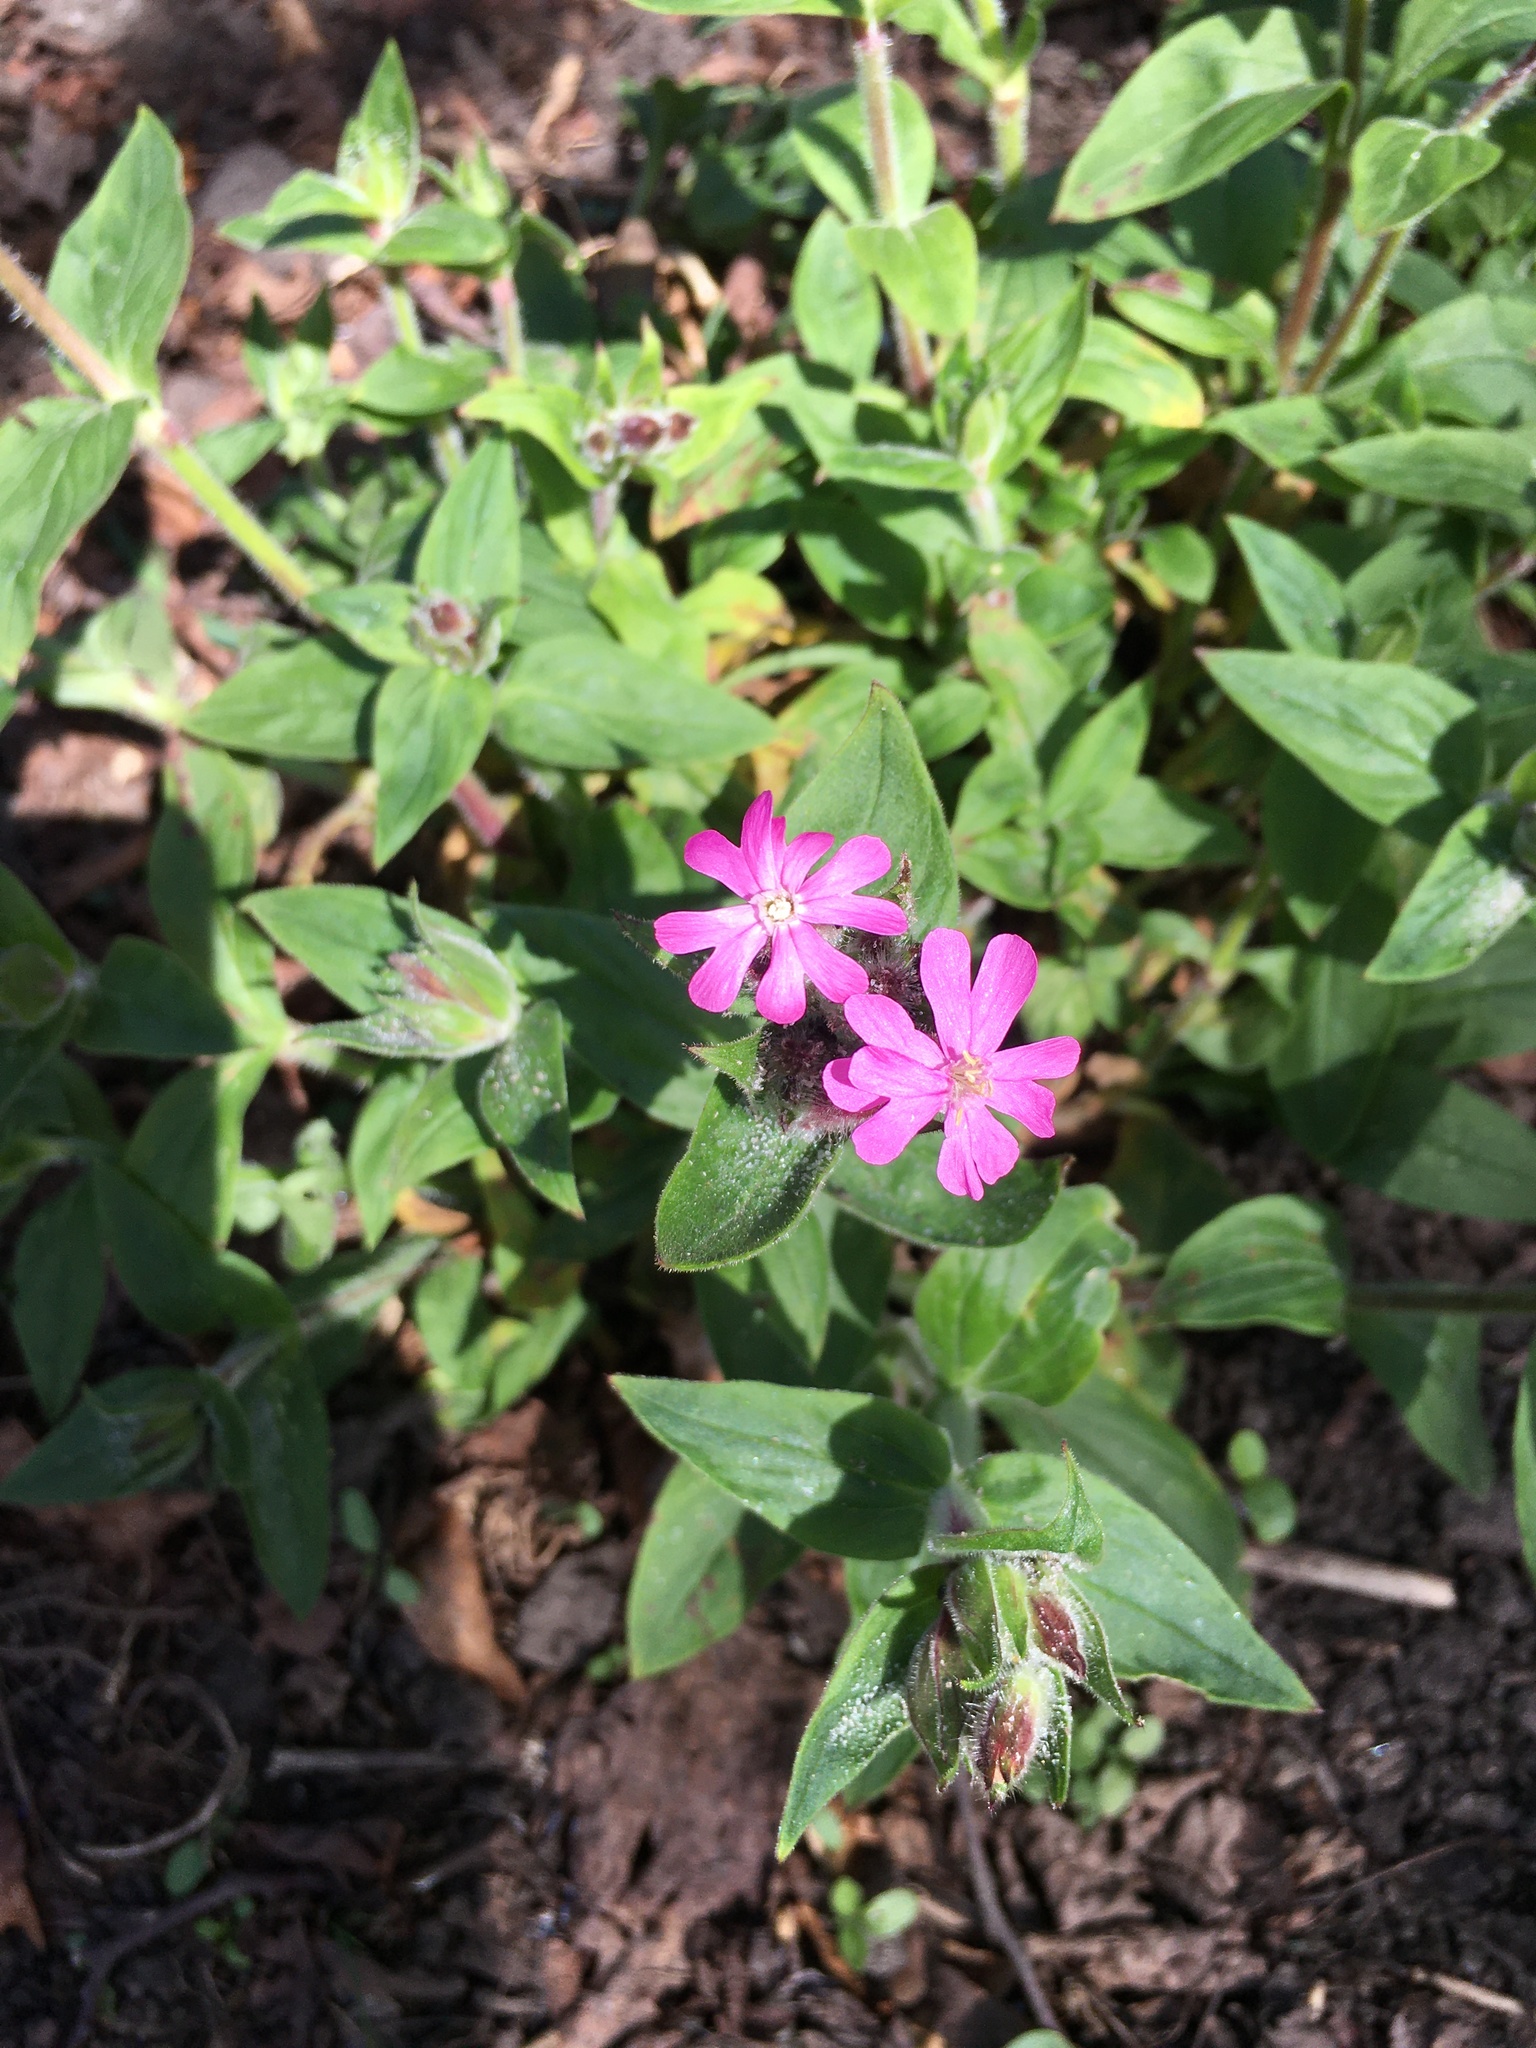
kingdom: Plantae
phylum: Tracheophyta
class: Magnoliopsida
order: Caryophyllales
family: Caryophyllaceae
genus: Silene
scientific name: Silene dioica
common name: Red campion
